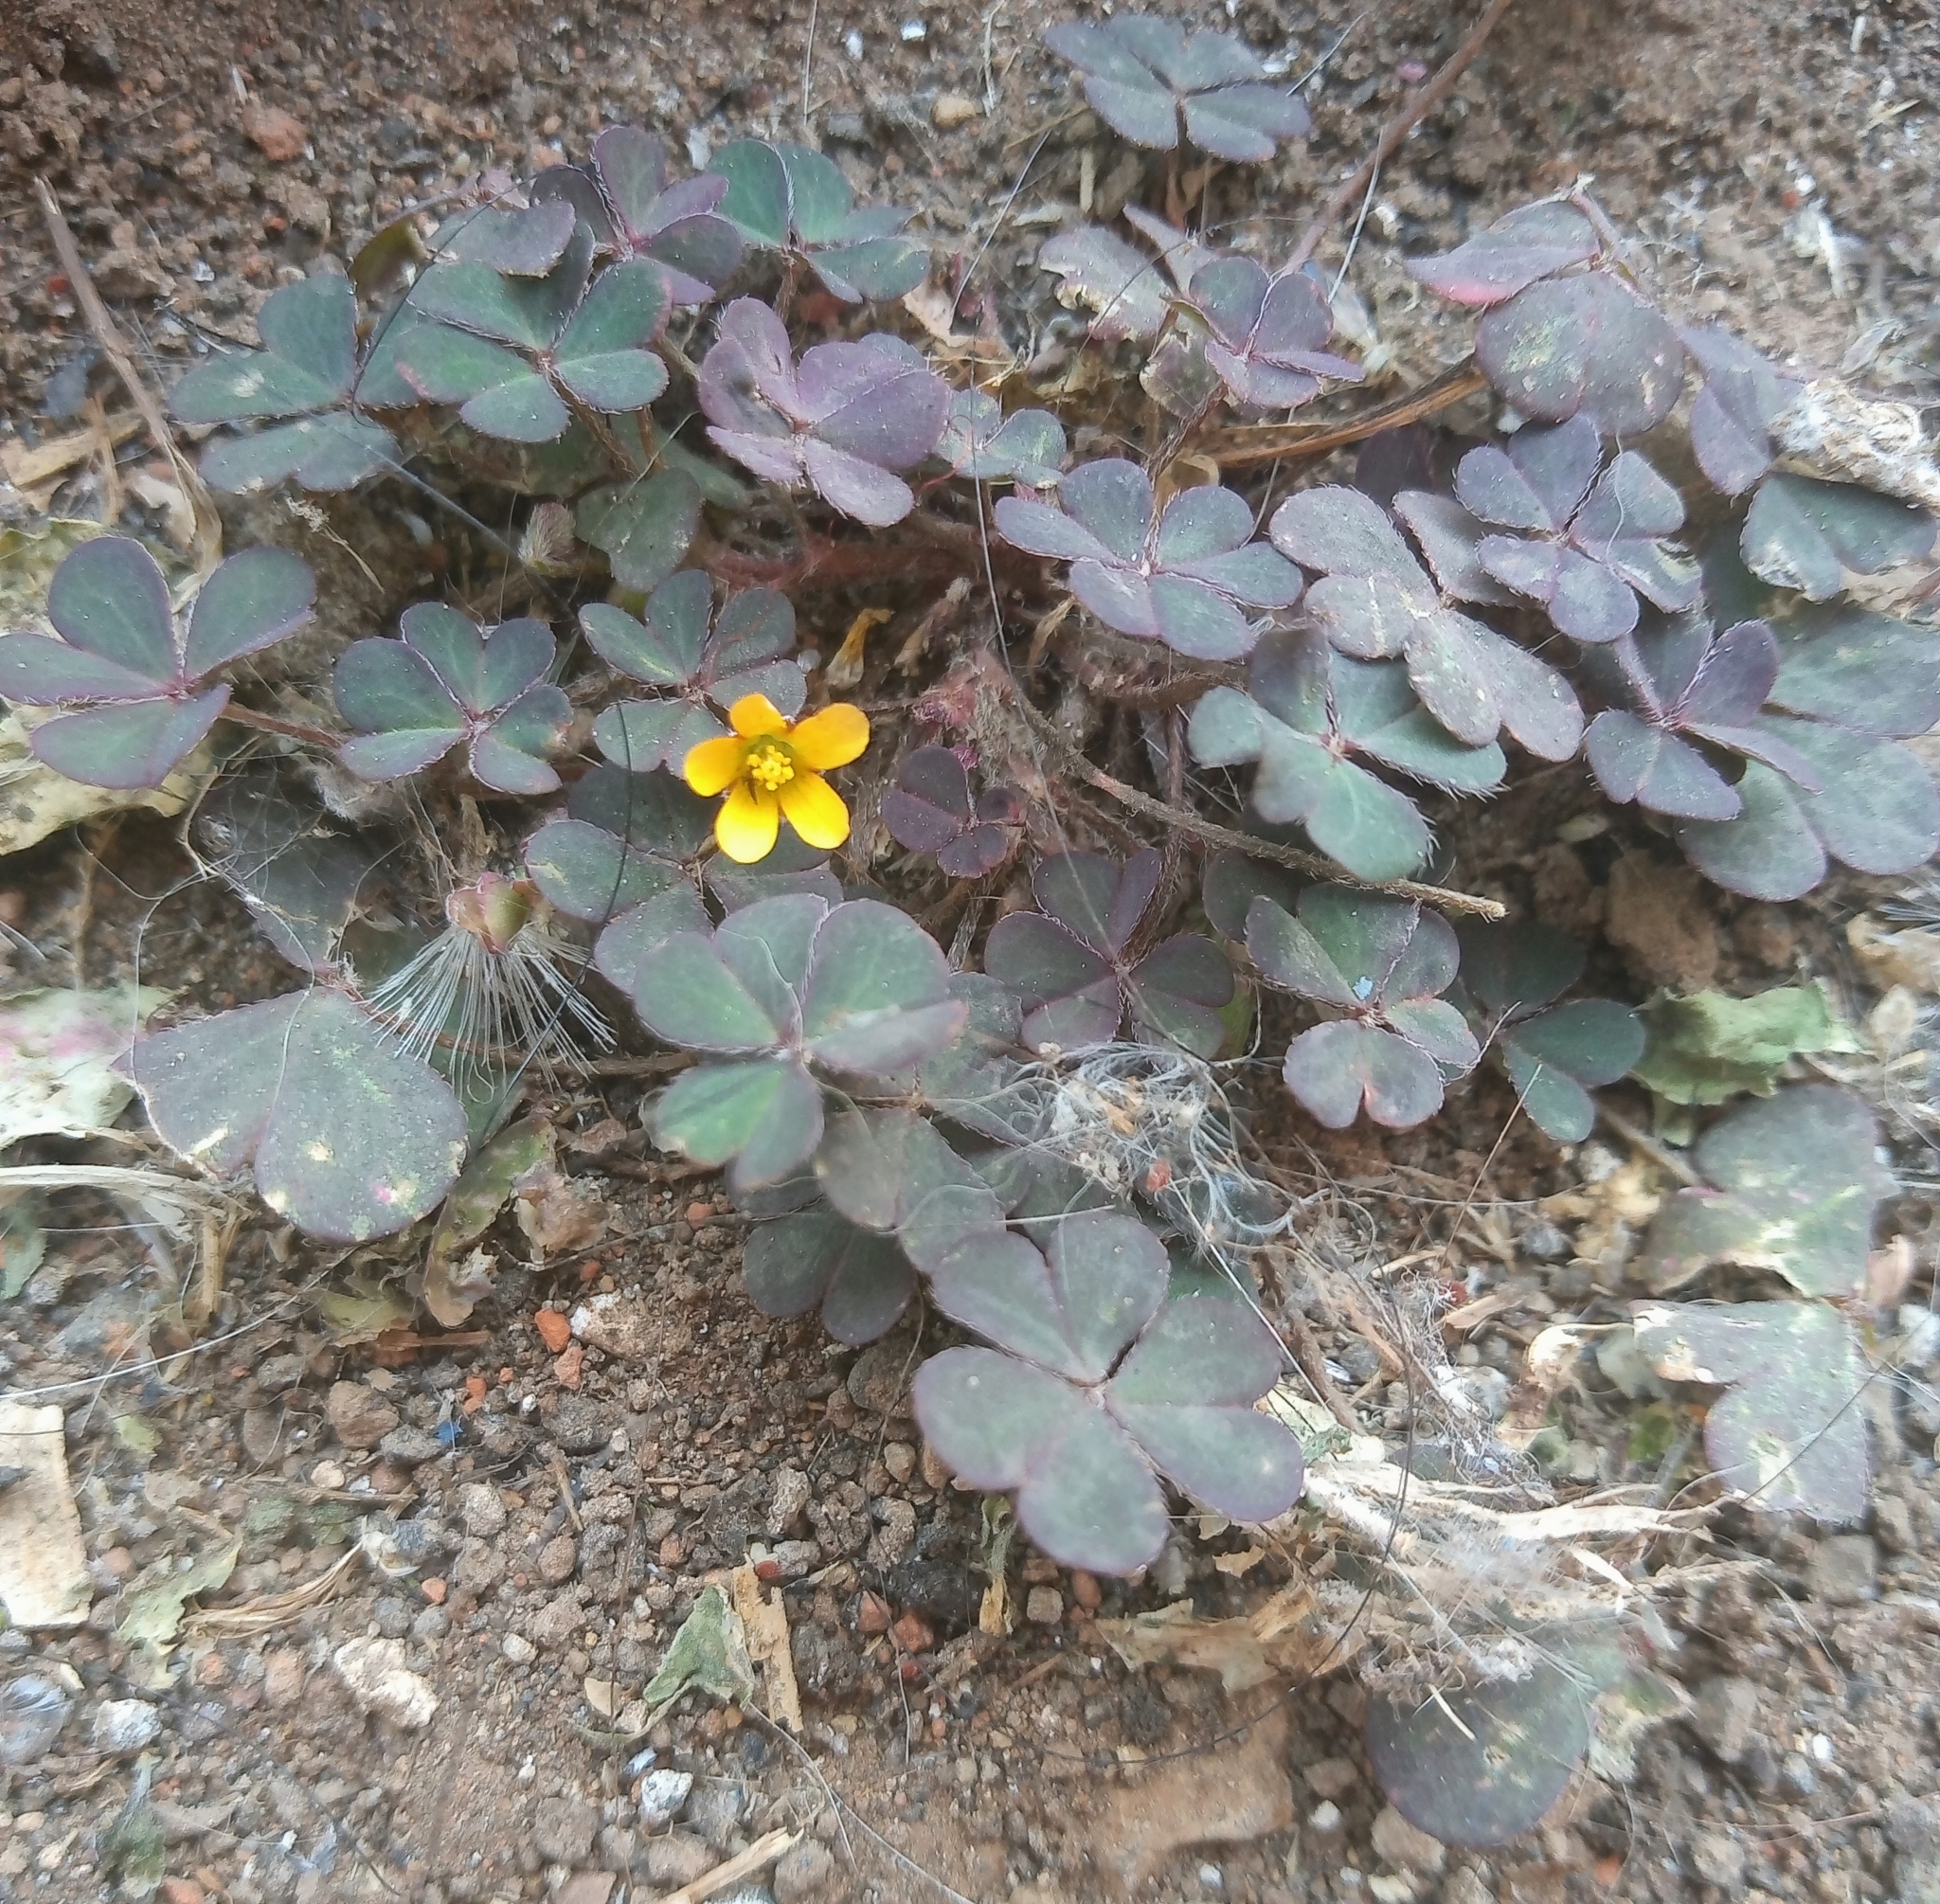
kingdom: Plantae
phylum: Tracheophyta
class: Magnoliopsida
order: Oxalidales
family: Oxalidaceae
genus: Oxalis
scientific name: Oxalis corniculata
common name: Procumbent yellow-sorrel
